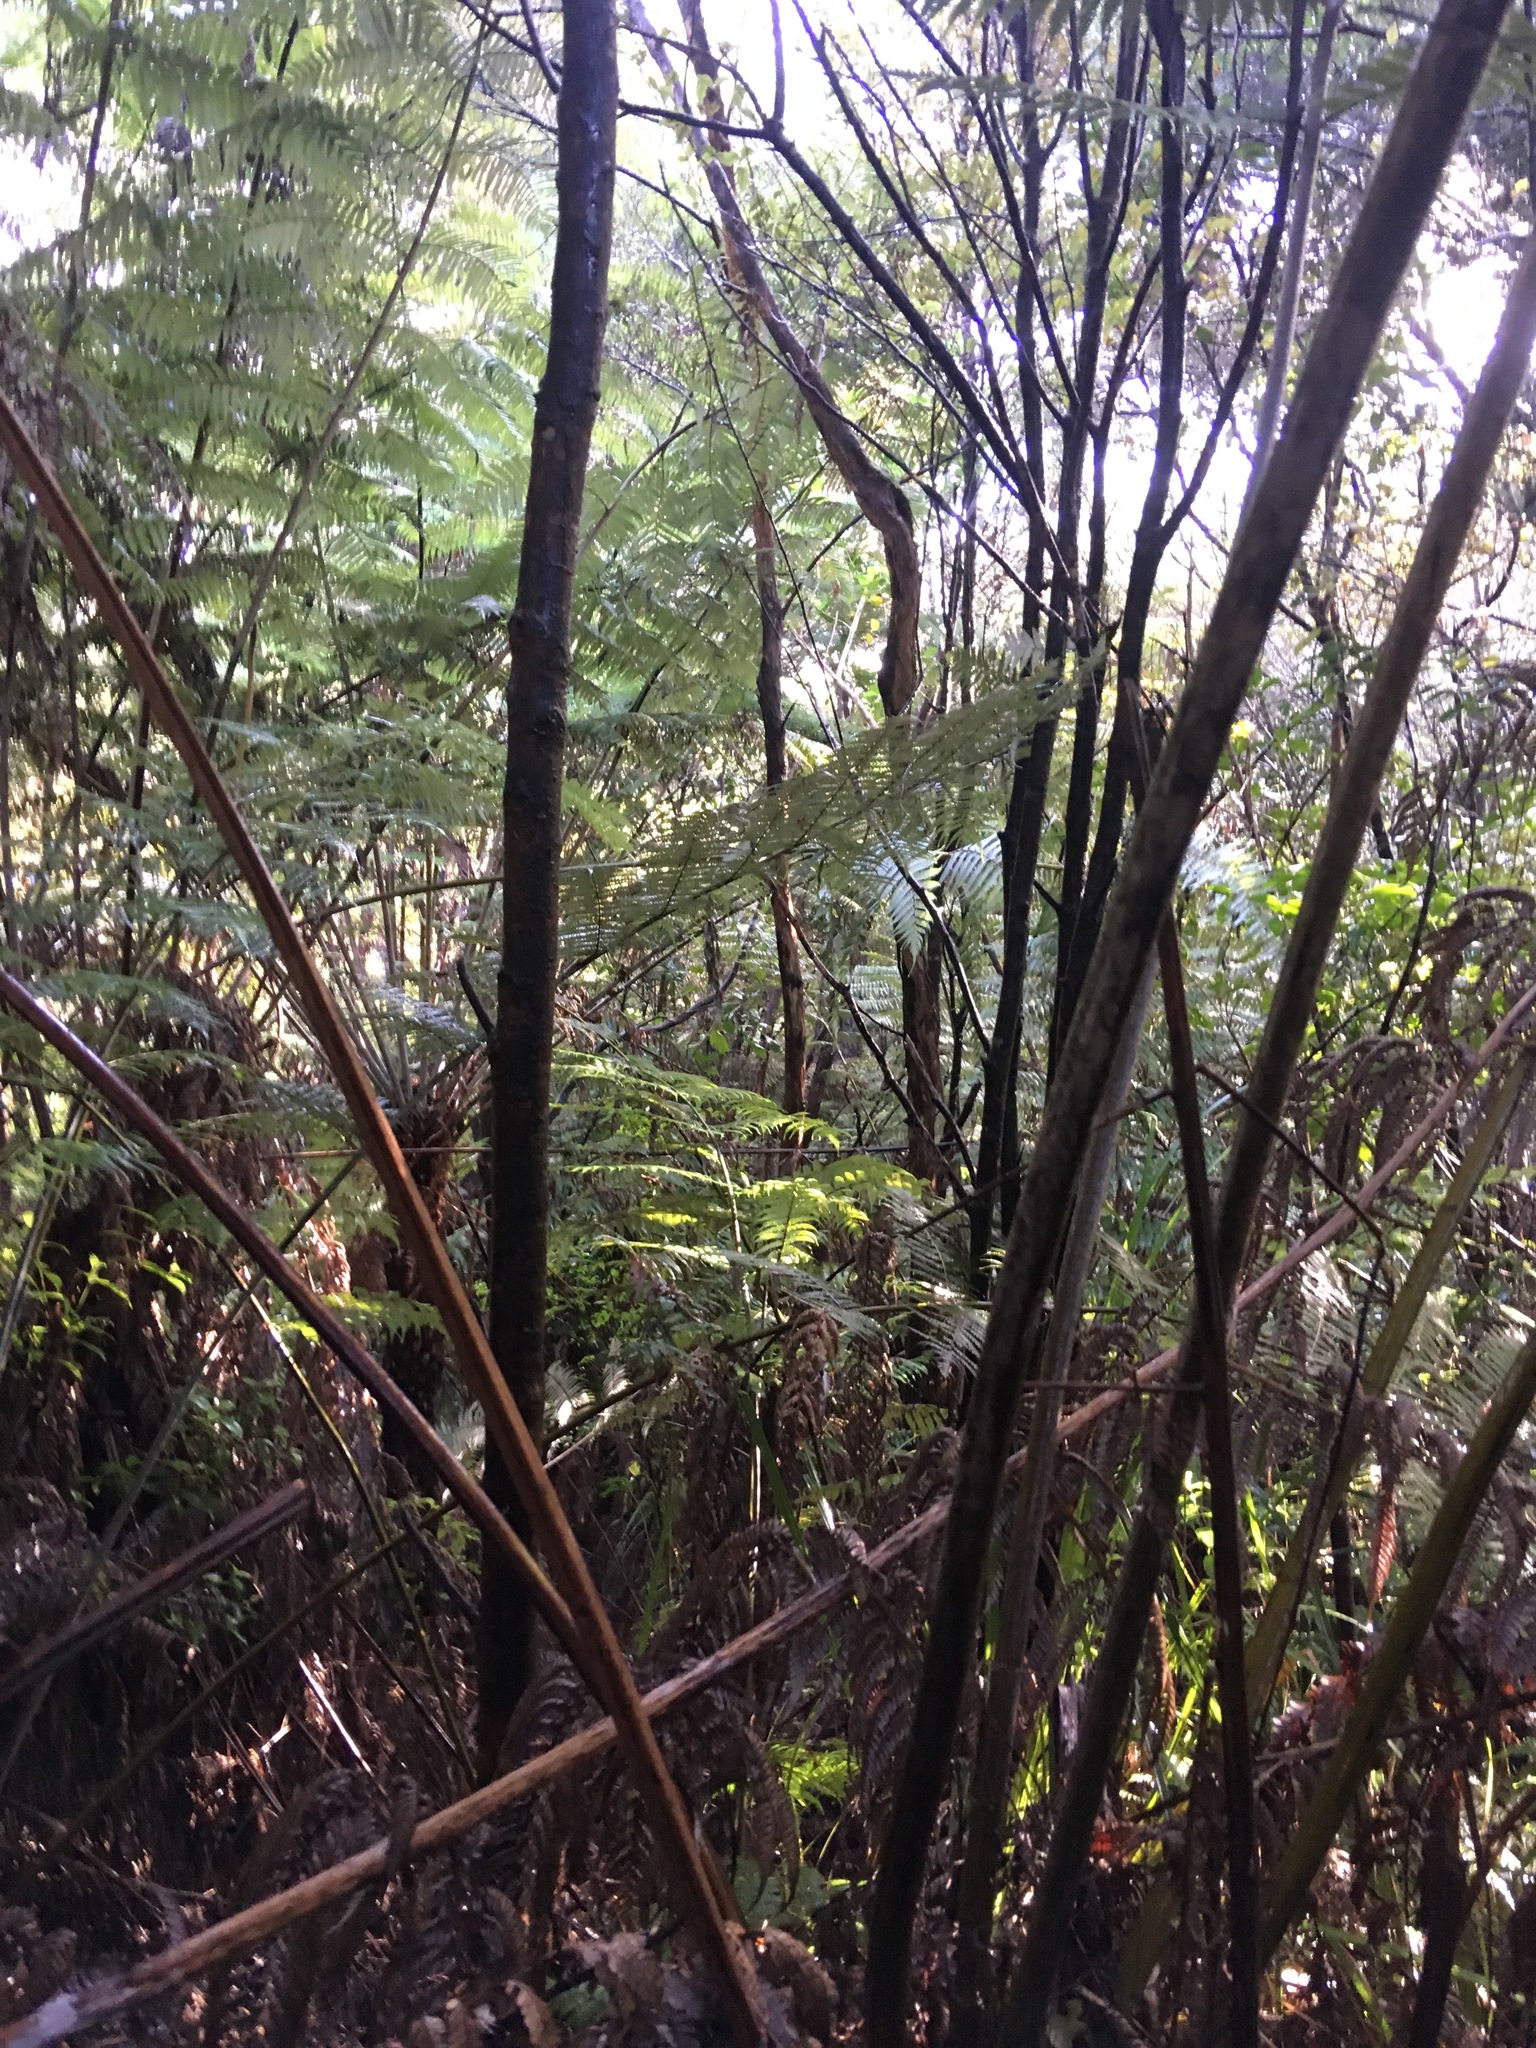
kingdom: Plantae
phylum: Tracheophyta
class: Polypodiopsida
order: Cyatheales
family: Cyatheaceae
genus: Alsophila
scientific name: Alsophila dealbata
